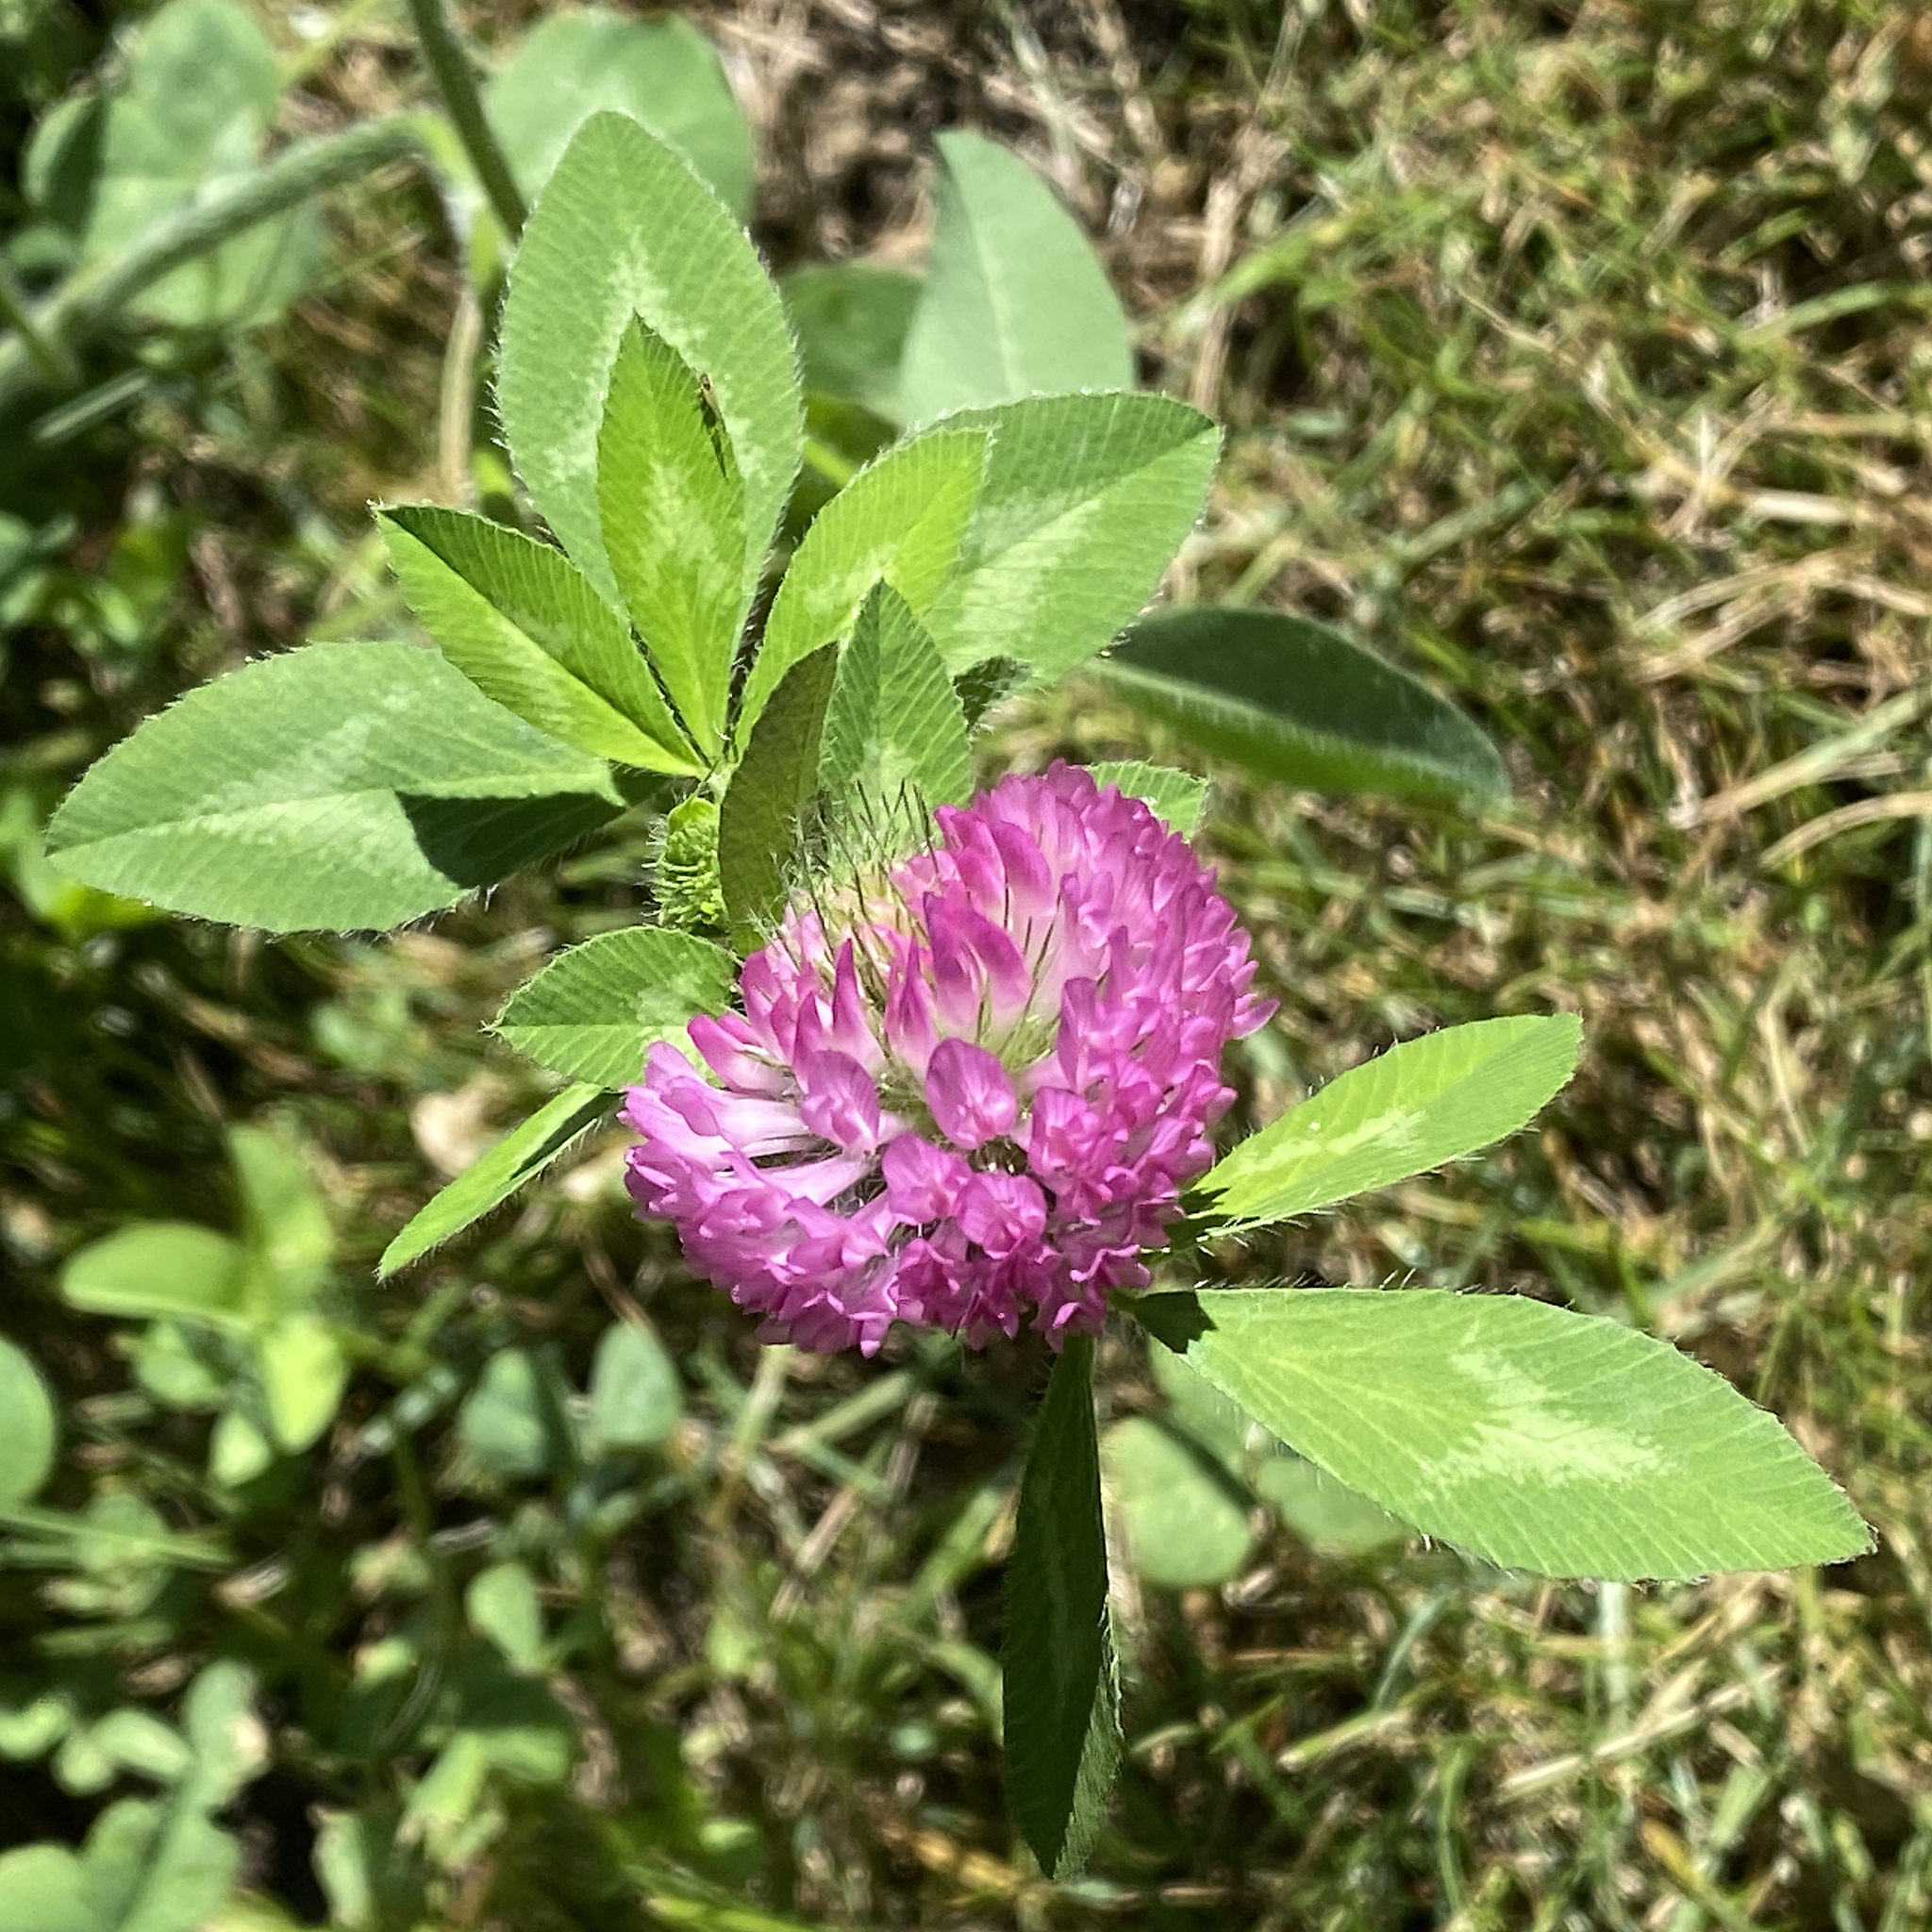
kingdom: Plantae
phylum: Tracheophyta
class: Magnoliopsida
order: Fabales
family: Fabaceae
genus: Trifolium
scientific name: Trifolium pratense
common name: Red clover
